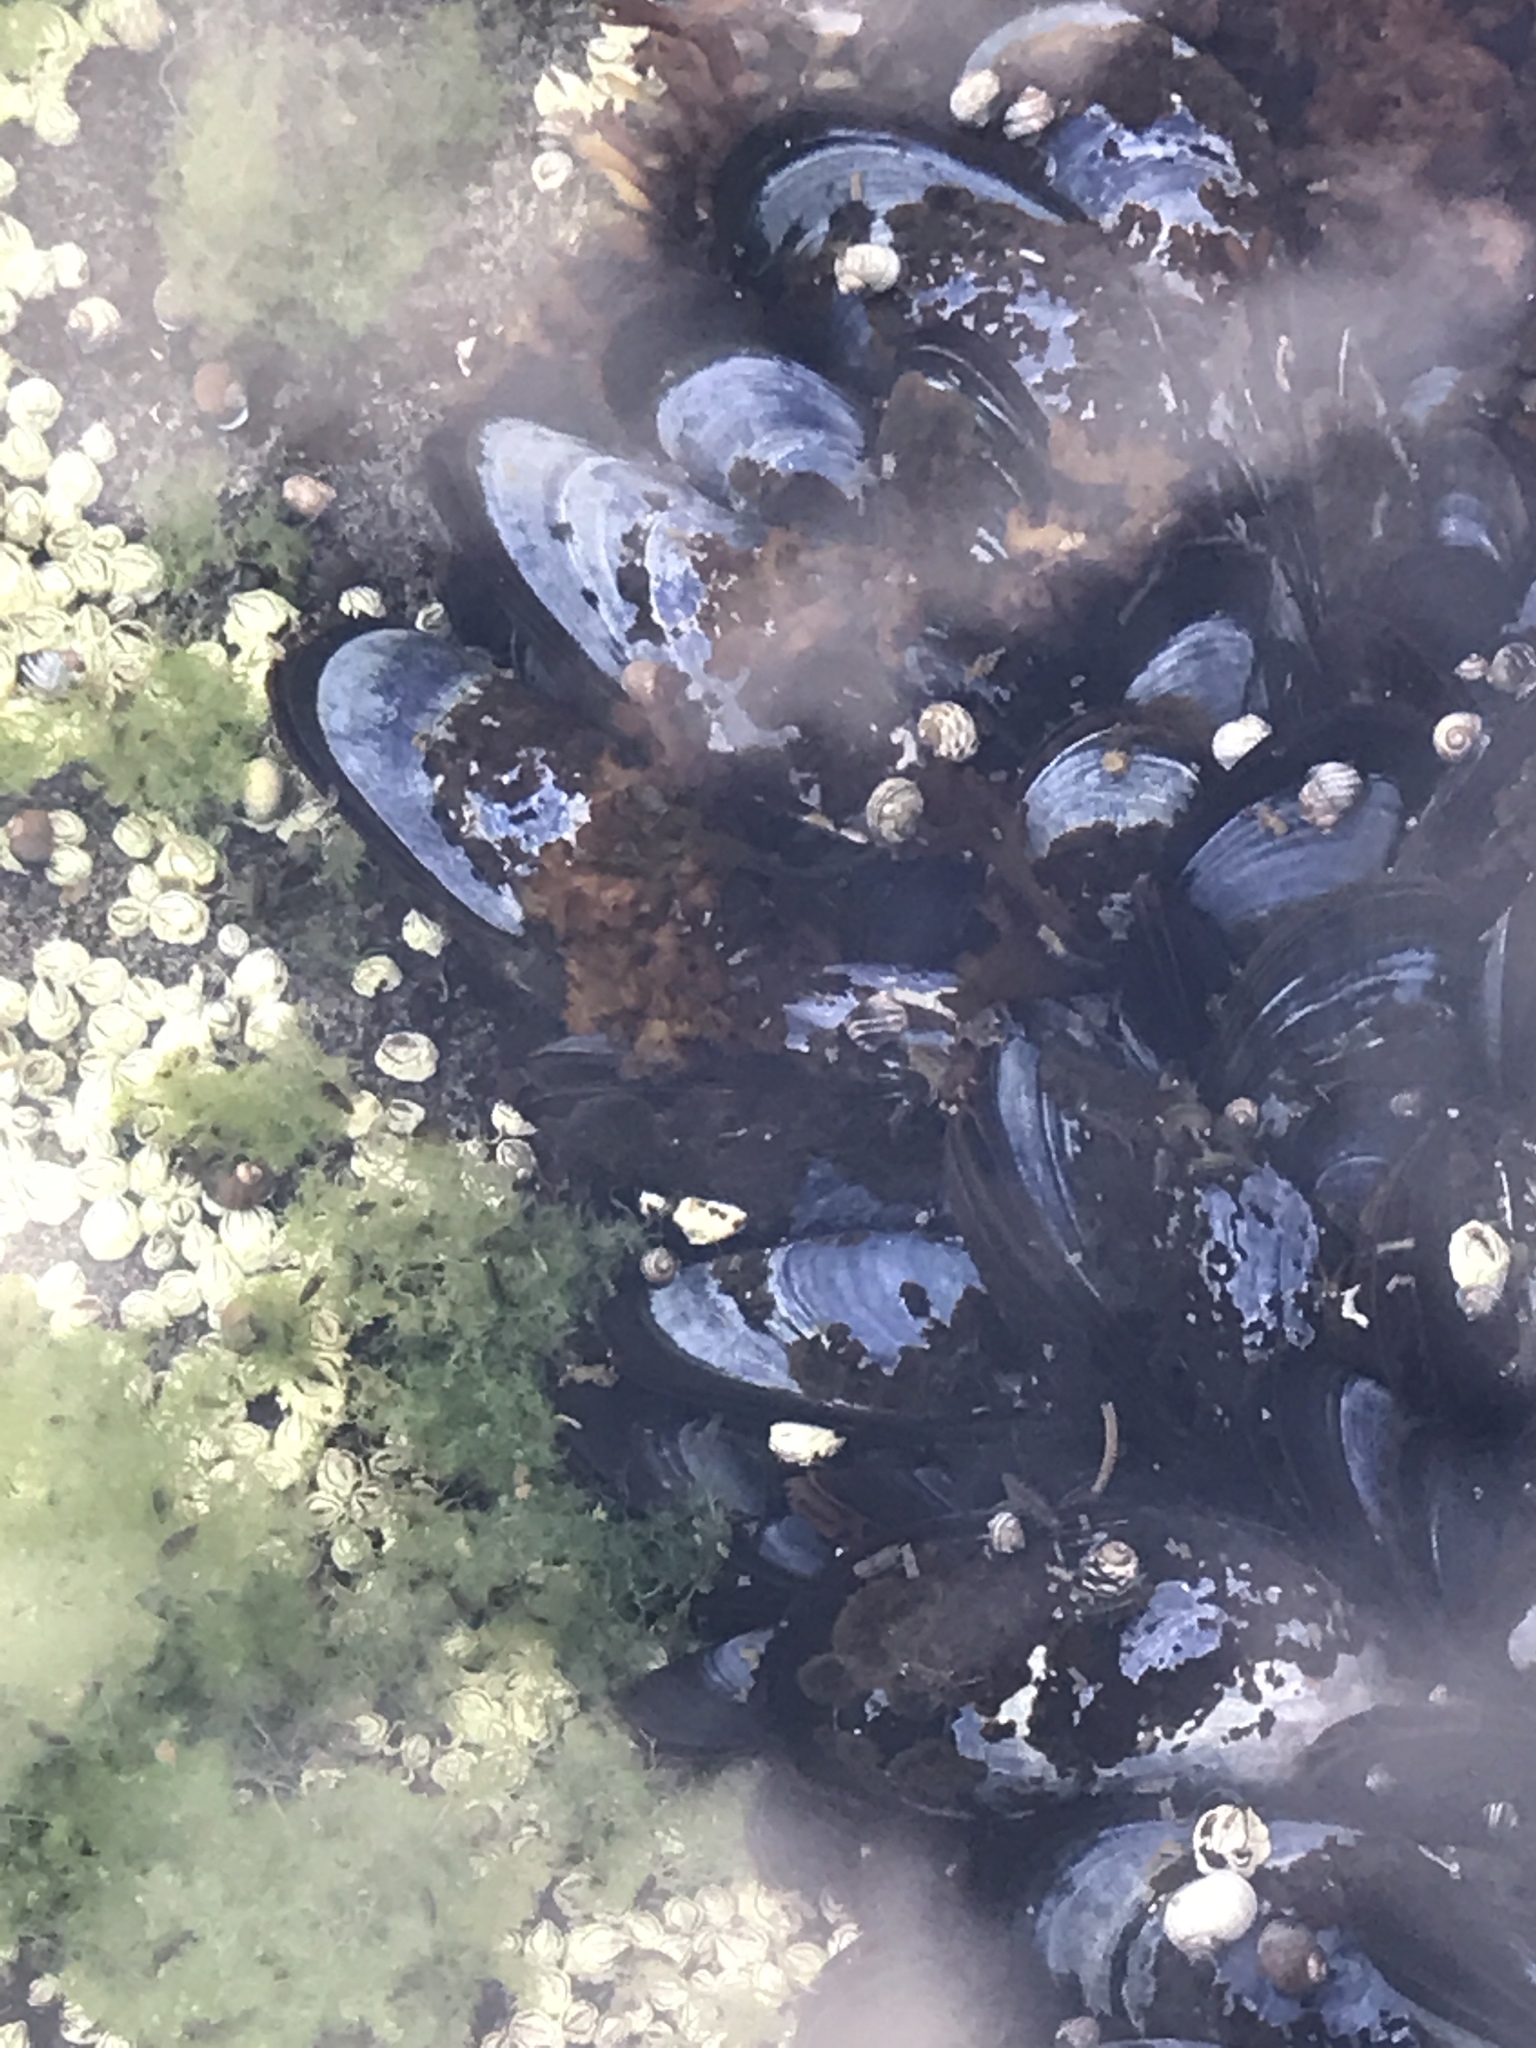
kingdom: Animalia
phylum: Mollusca
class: Bivalvia
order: Mytilida
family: Mytilidae
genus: Mytilus
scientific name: Mytilus edulis
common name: Blue mussel
